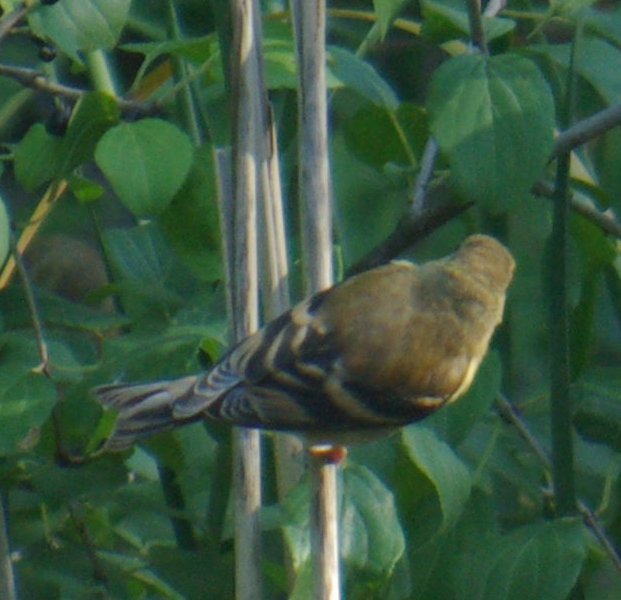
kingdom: Animalia
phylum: Chordata
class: Aves
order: Passeriformes
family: Fringillidae
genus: Spinus
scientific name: Spinus tristis
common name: American goldfinch
